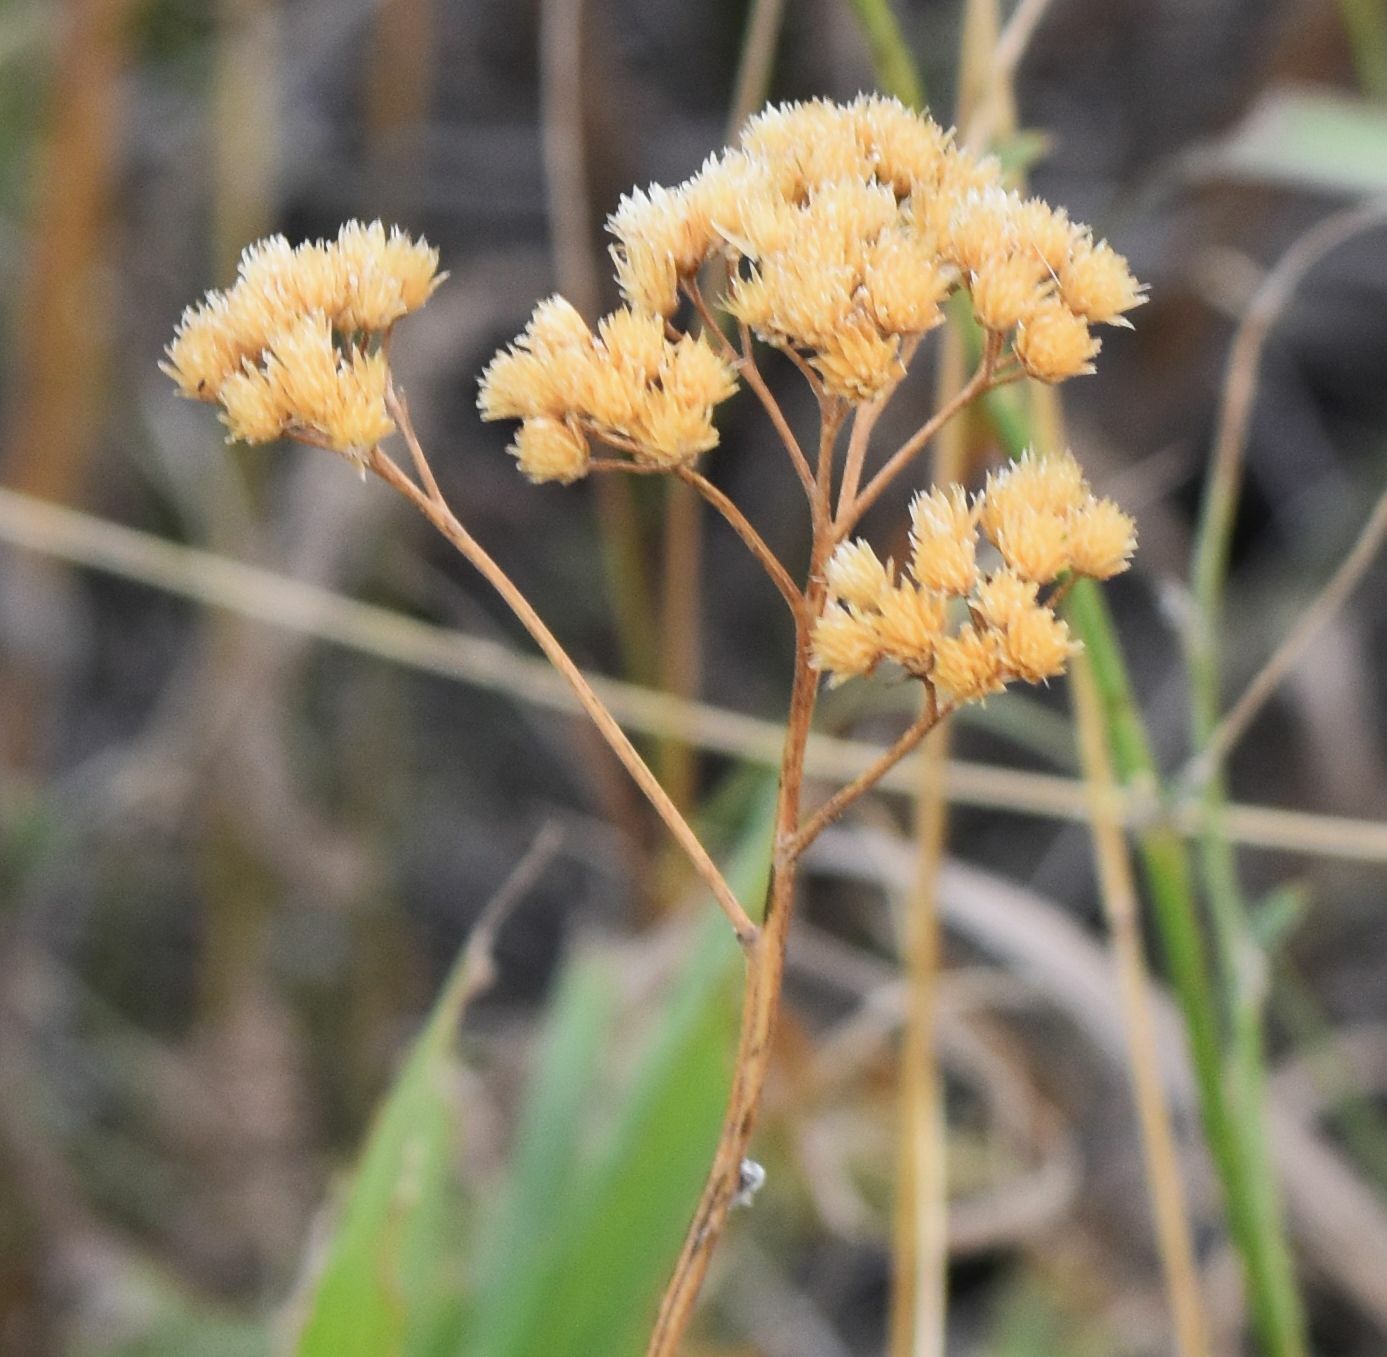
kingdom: Plantae
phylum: Tracheophyta
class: Magnoliopsida
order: Asterales
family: Asteraceae
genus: Achillea
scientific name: Achillea millefolium
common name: Yarrow
